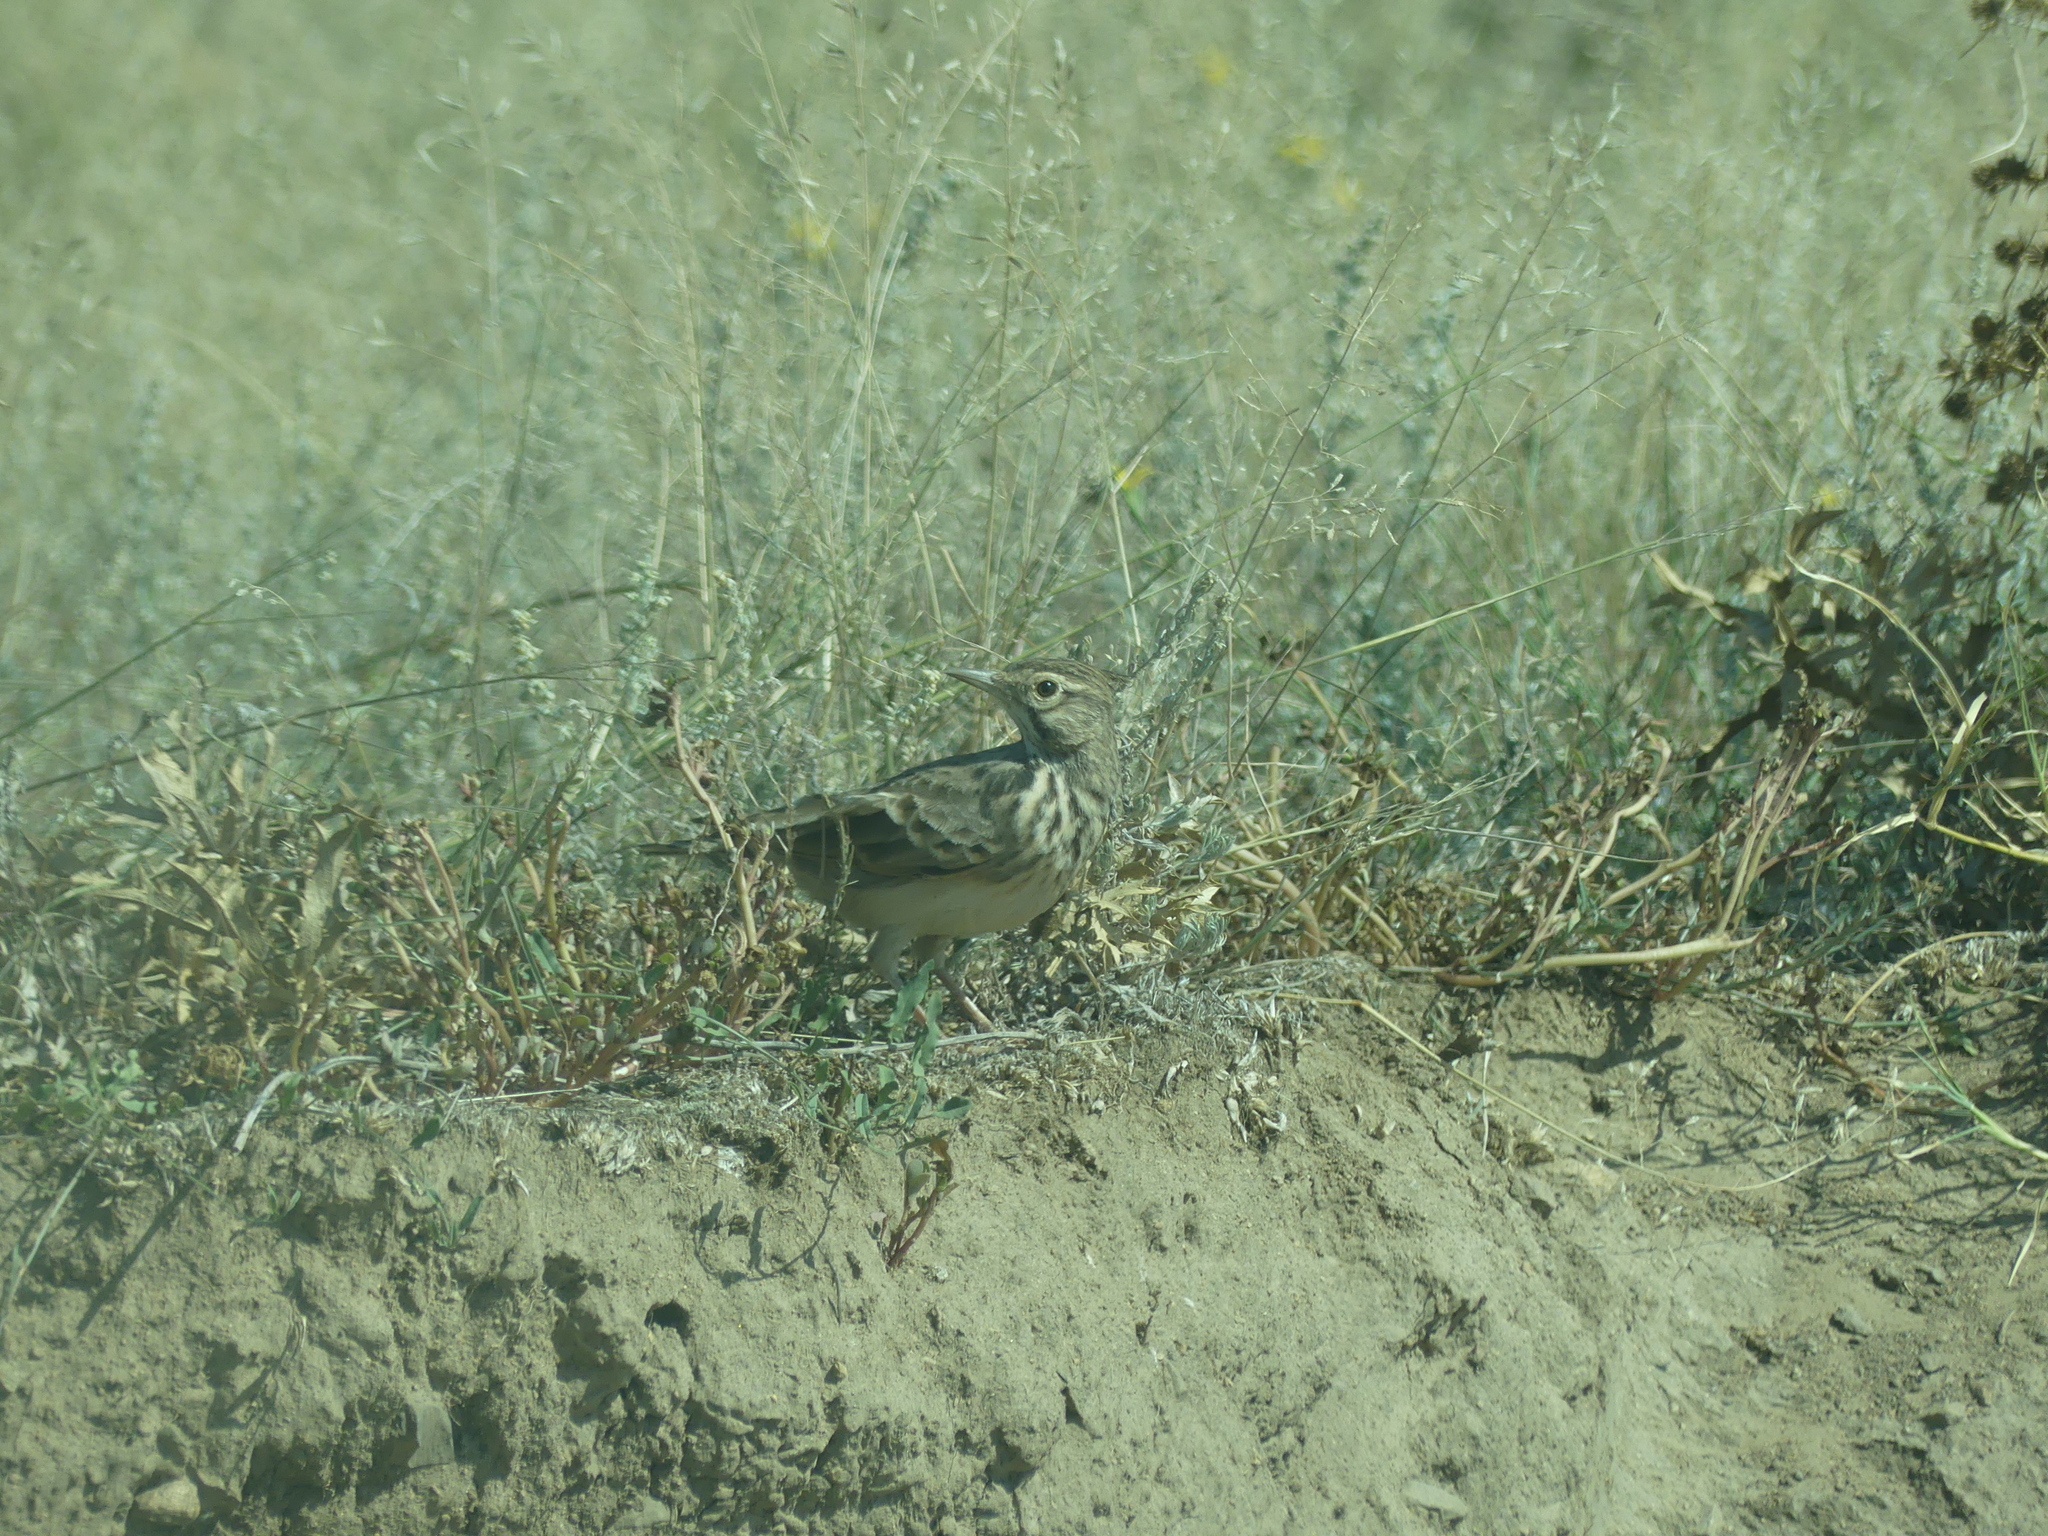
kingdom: Animalia
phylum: Chordata
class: Aves
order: Passeriformes
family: Alaudidae
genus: Galerida
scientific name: Galerida cristata
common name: Crested lark
